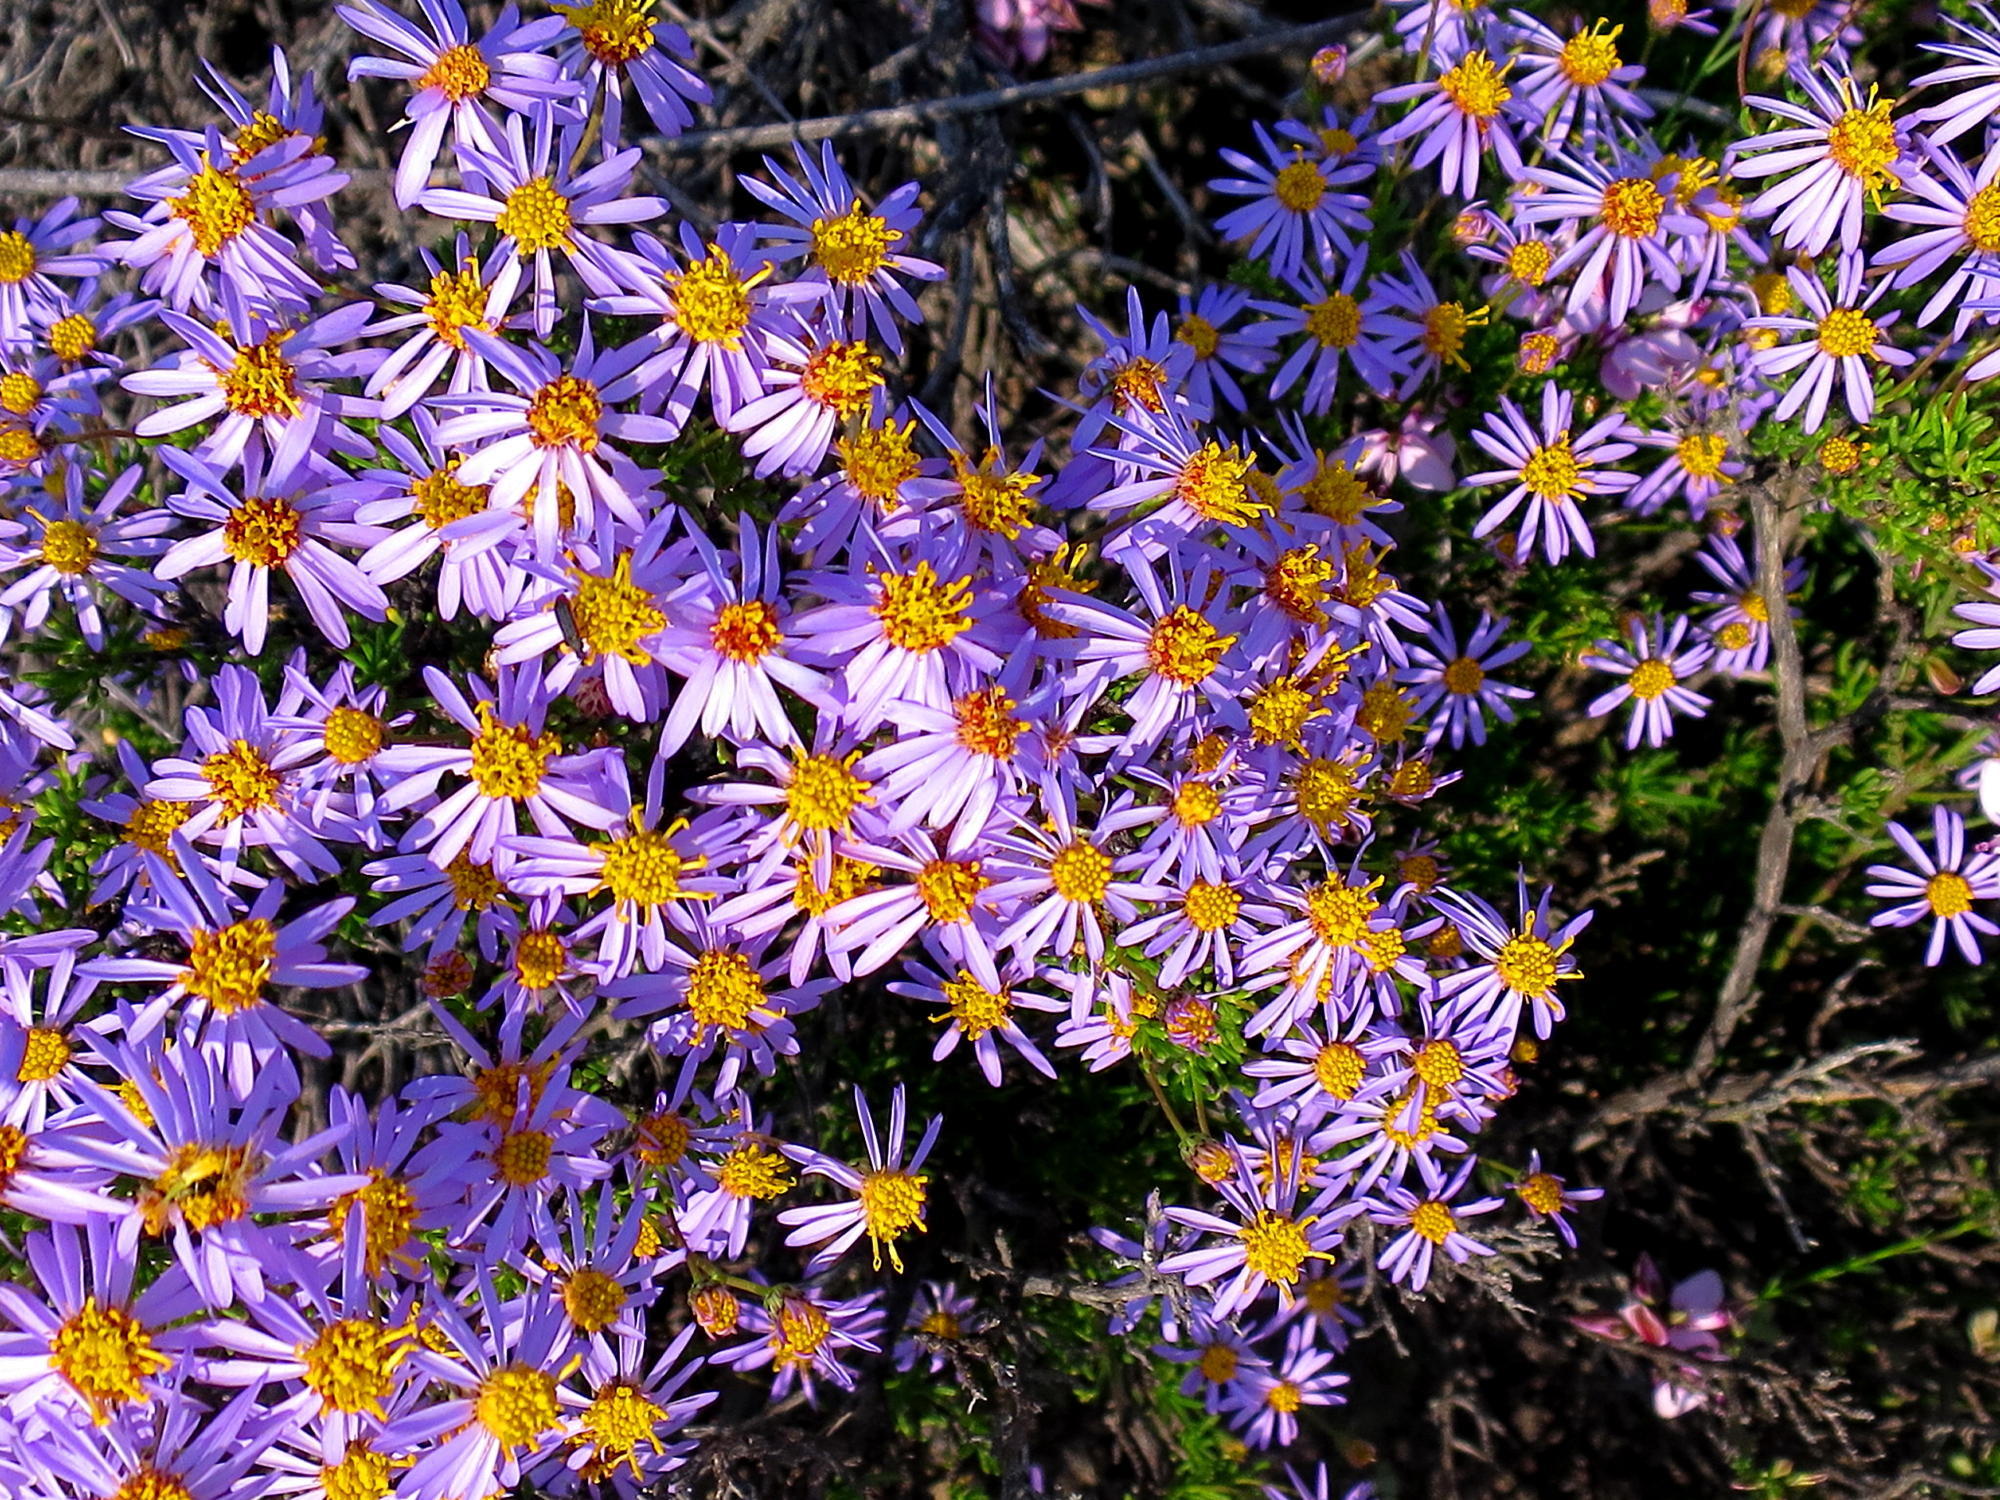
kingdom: Plantae
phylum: Tracheophyta
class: Magnoliopsida
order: Asterales
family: Asteraceae
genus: Felicia
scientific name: Felicia filifolia
